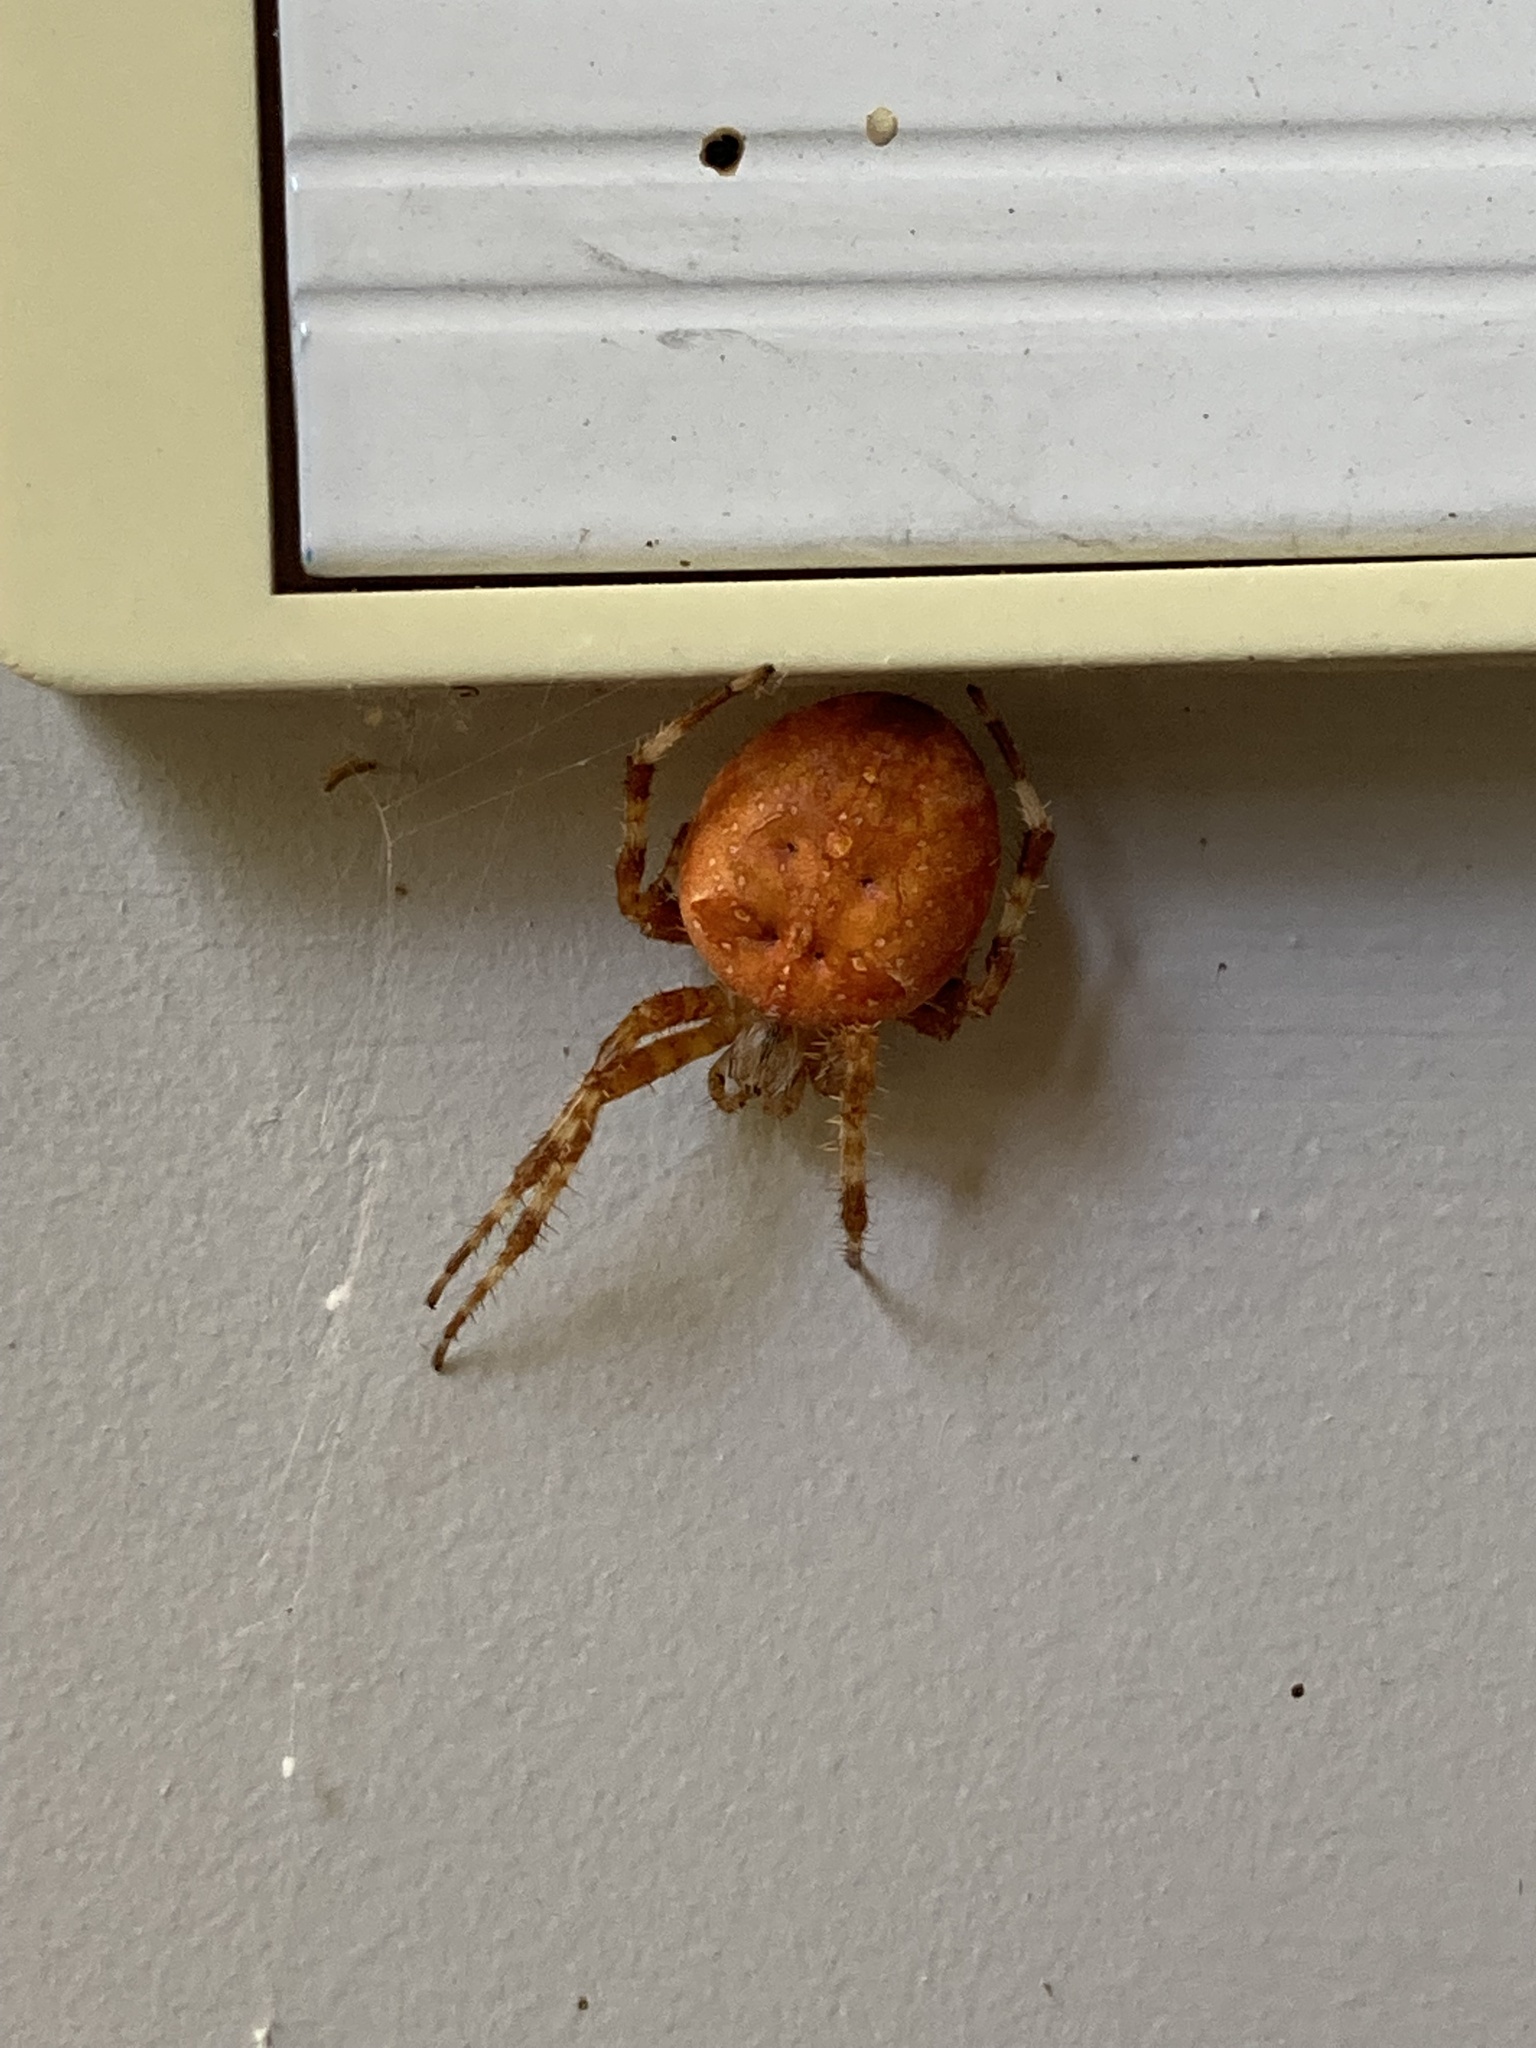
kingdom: Animalia
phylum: Arthropoda
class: Arachnida
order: Araneae
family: Araneidae
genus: Araneus
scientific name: Araneus diadematus
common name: Cross orbweaver
